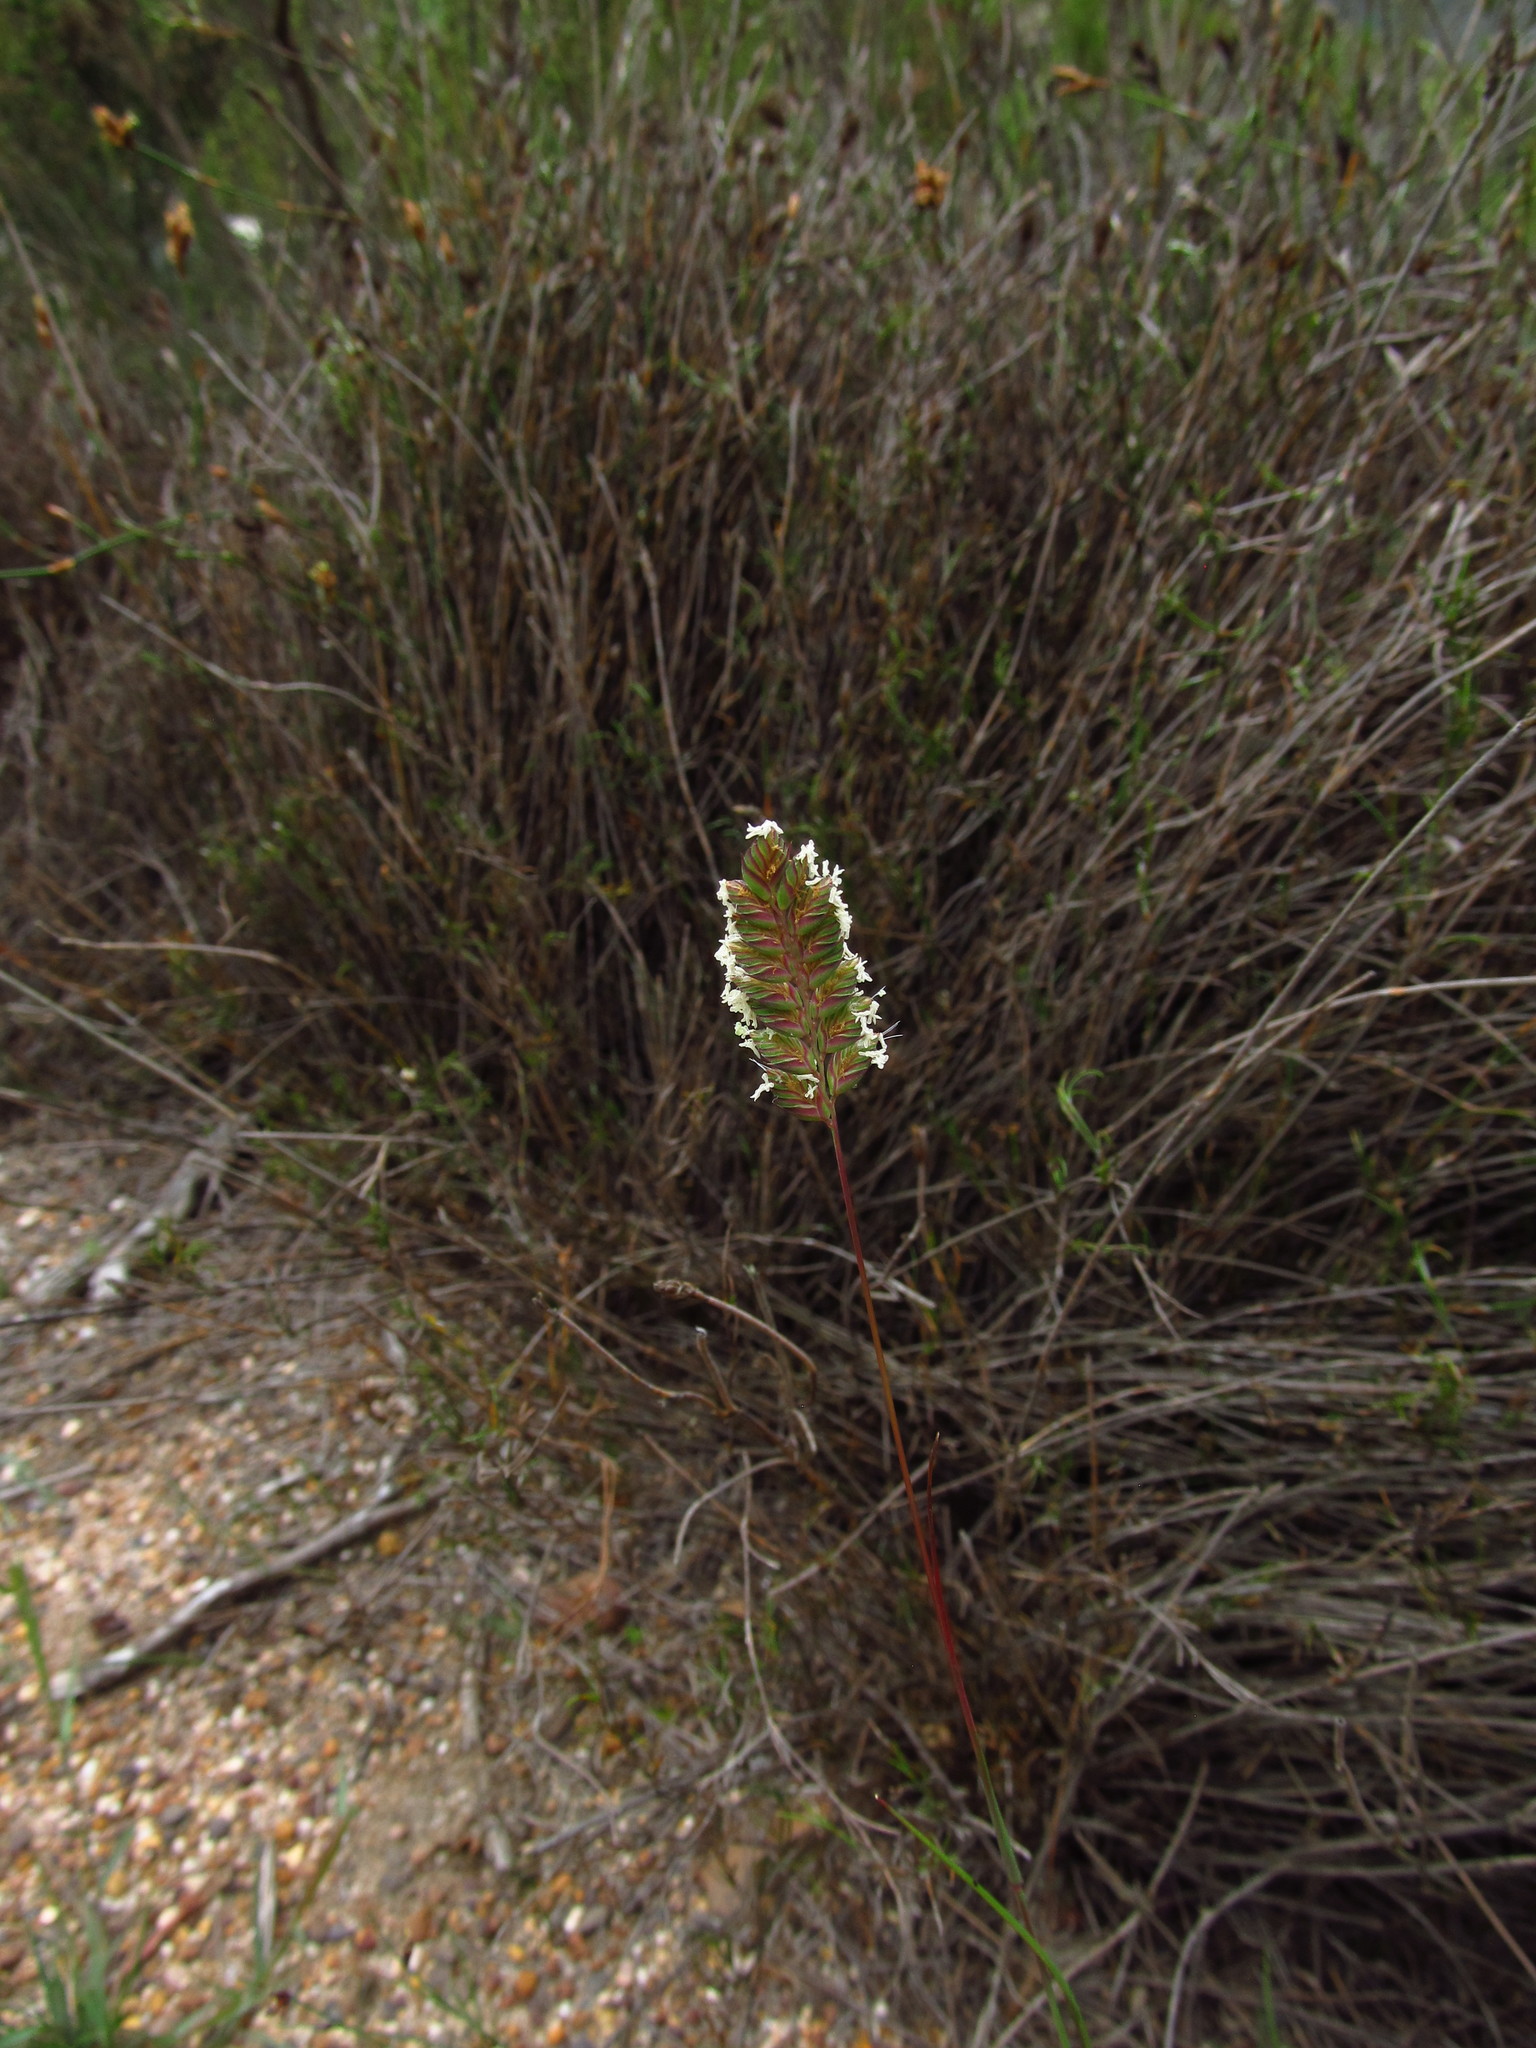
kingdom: Plantae
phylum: Tracheophyta
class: Liliopsida
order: Poales
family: Poaceae
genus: Tribolium
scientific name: Tribolium uniolae
